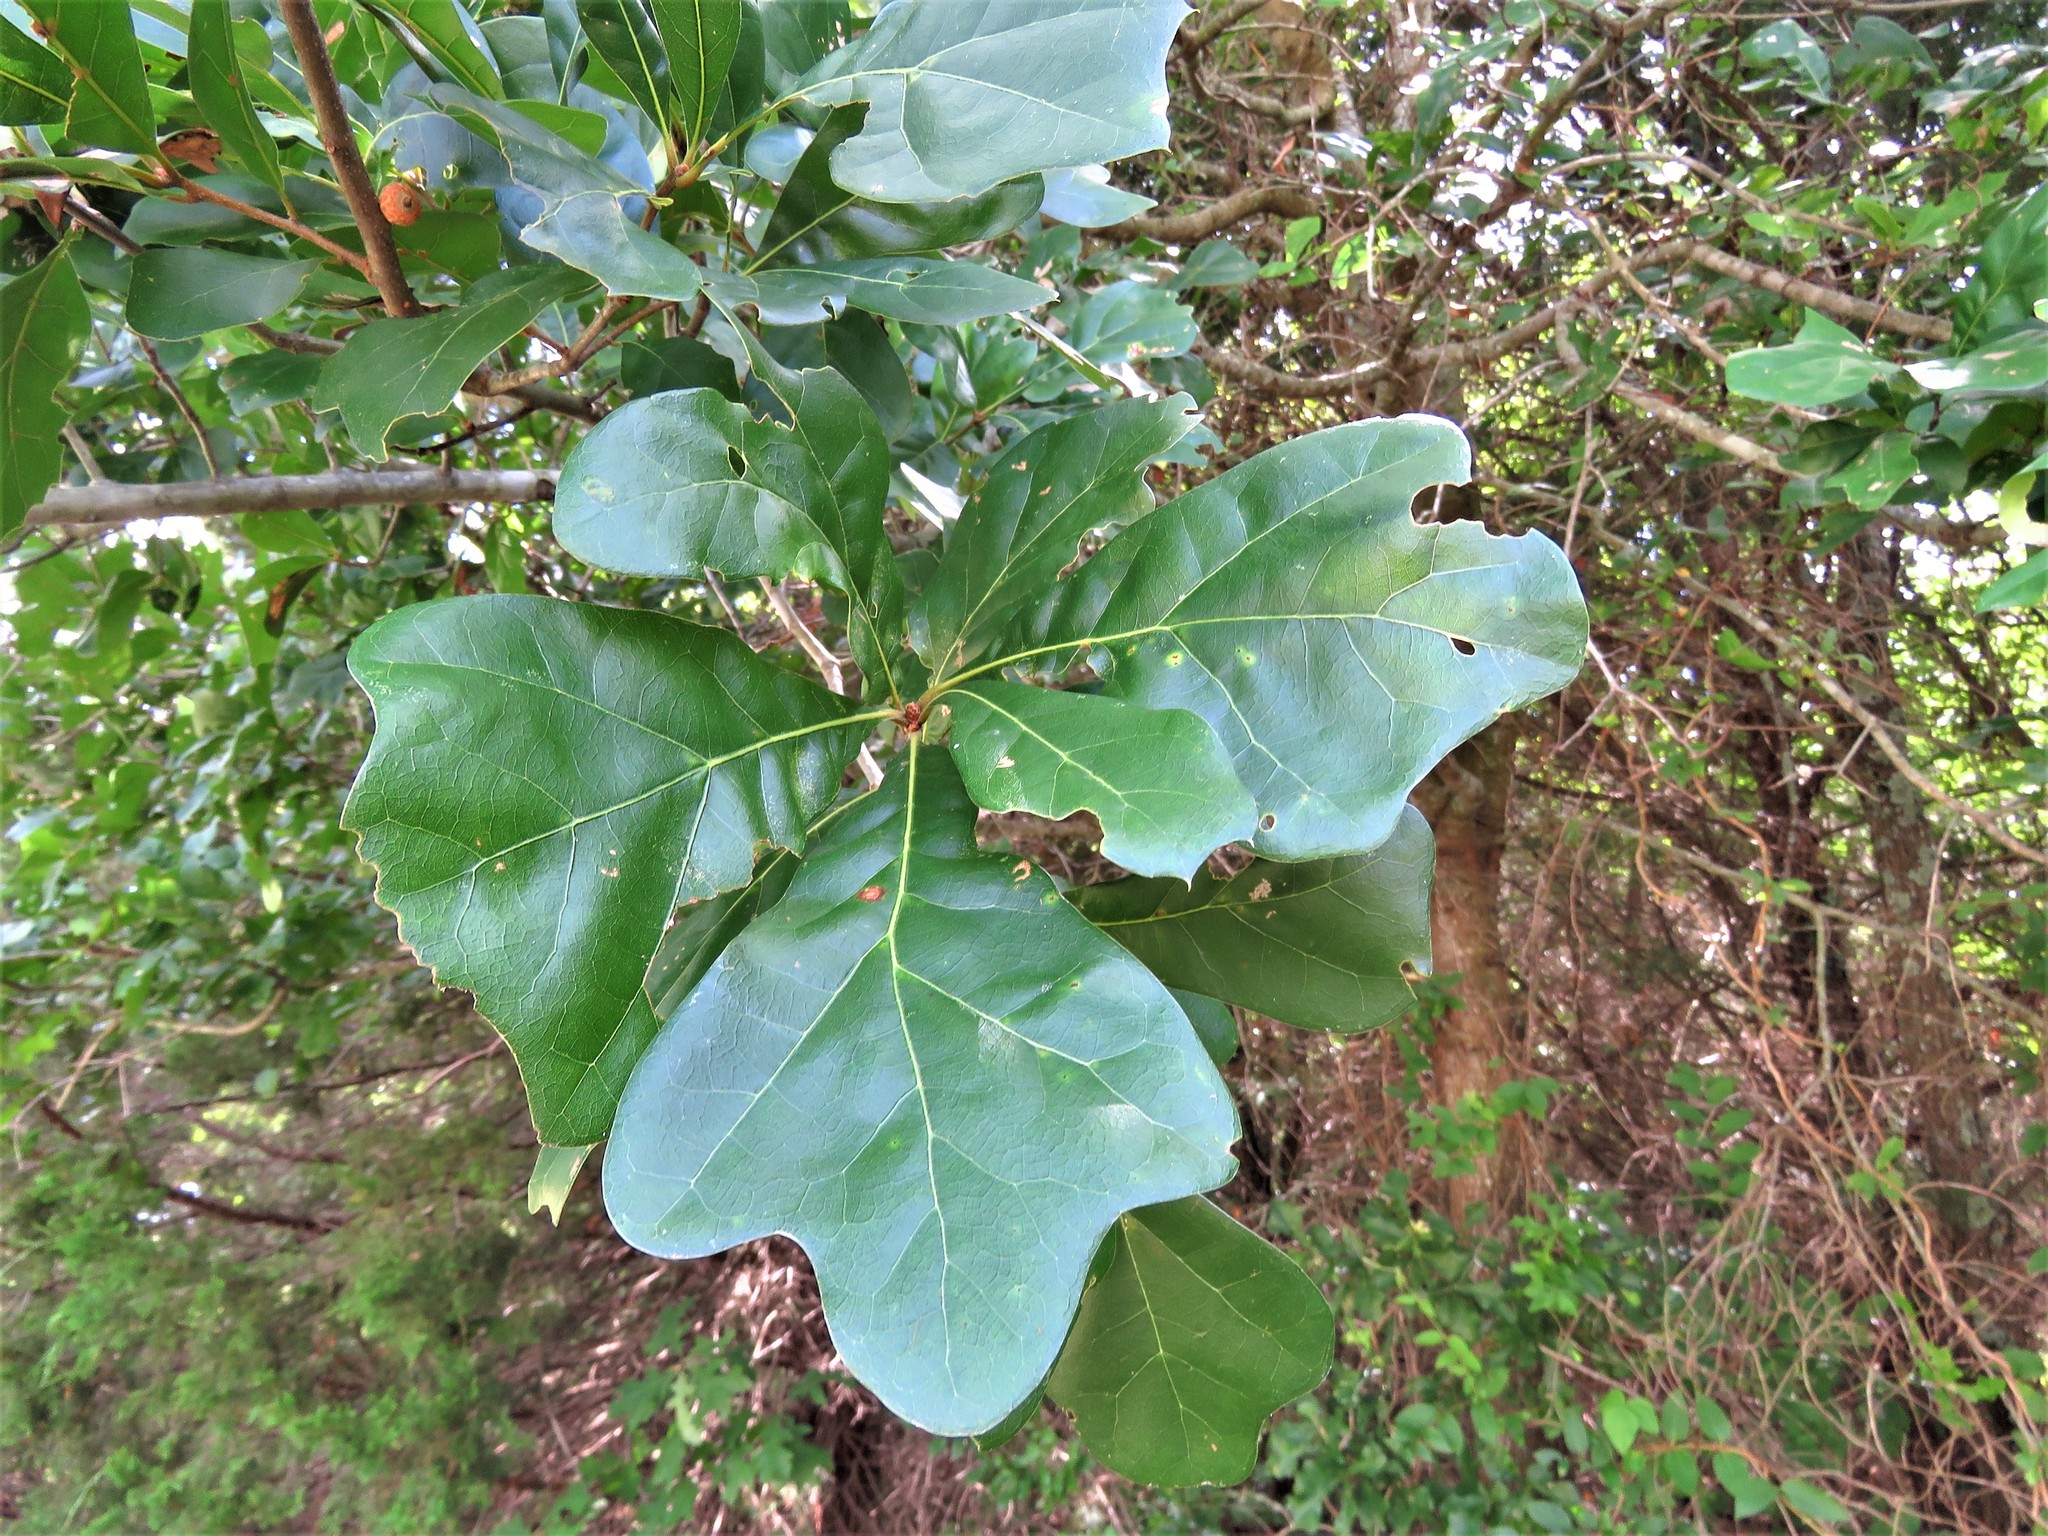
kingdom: Plantae
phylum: Tracheophyta
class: Magnoliopsida
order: Fagales
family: Fagaceae
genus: Quercus
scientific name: Quercus nigra
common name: Water oak
